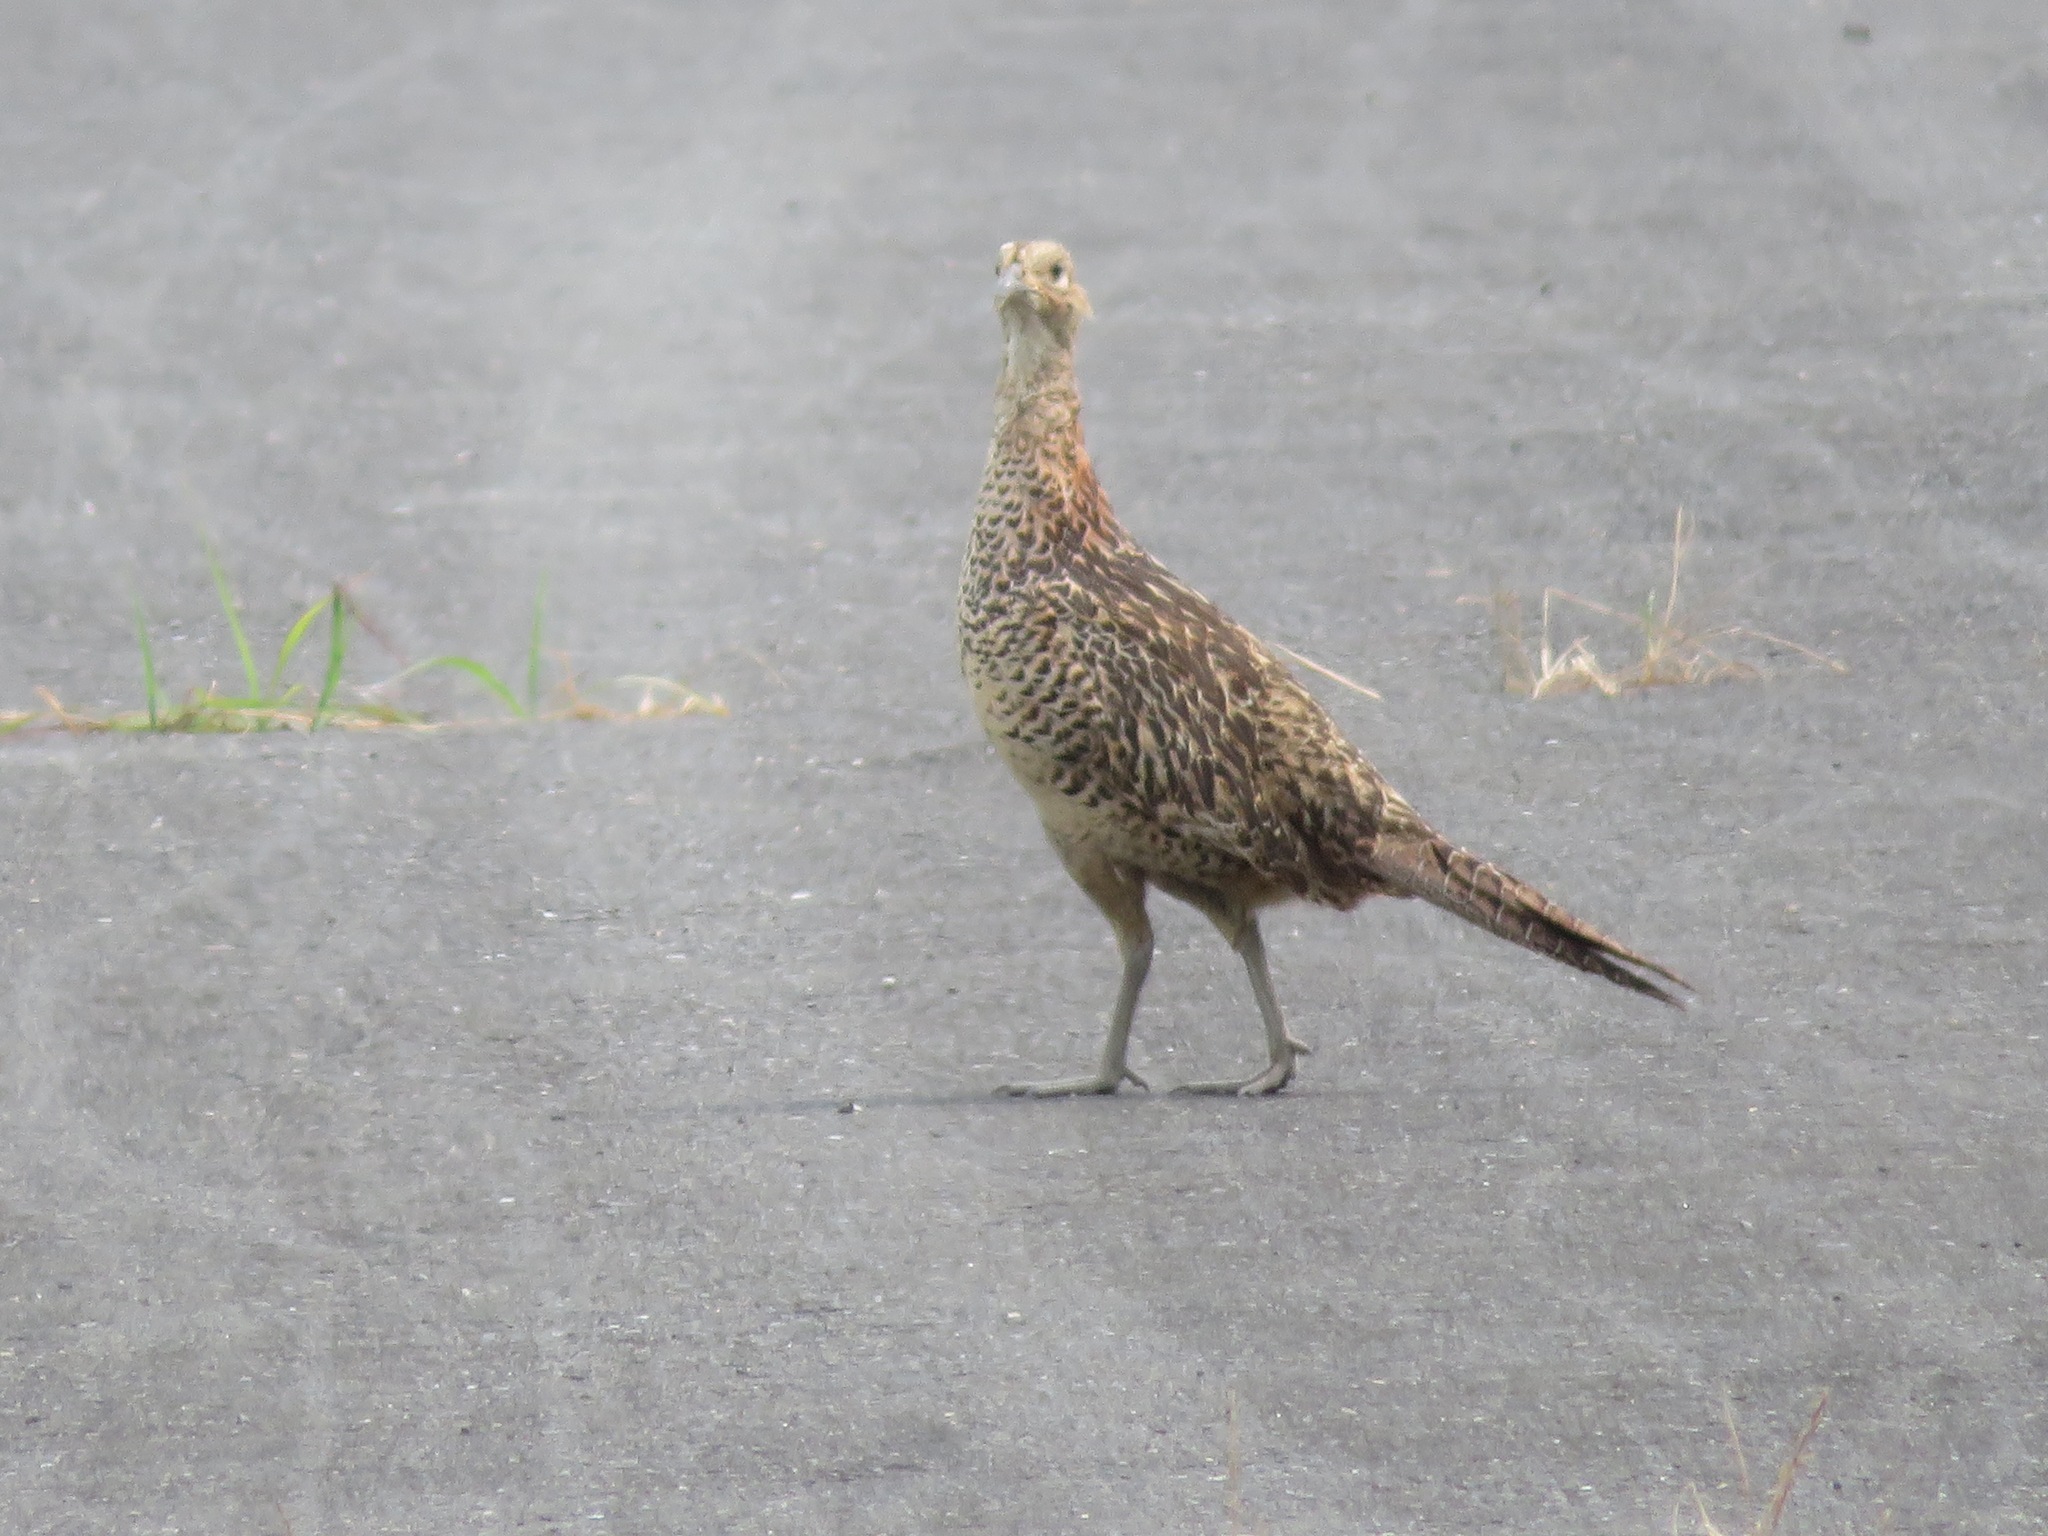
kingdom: Animalia
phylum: Chordata
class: Aves
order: Galliformes
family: Phasianidae
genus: Phasianus
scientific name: Phasianus versicolor
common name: Green pheasant
